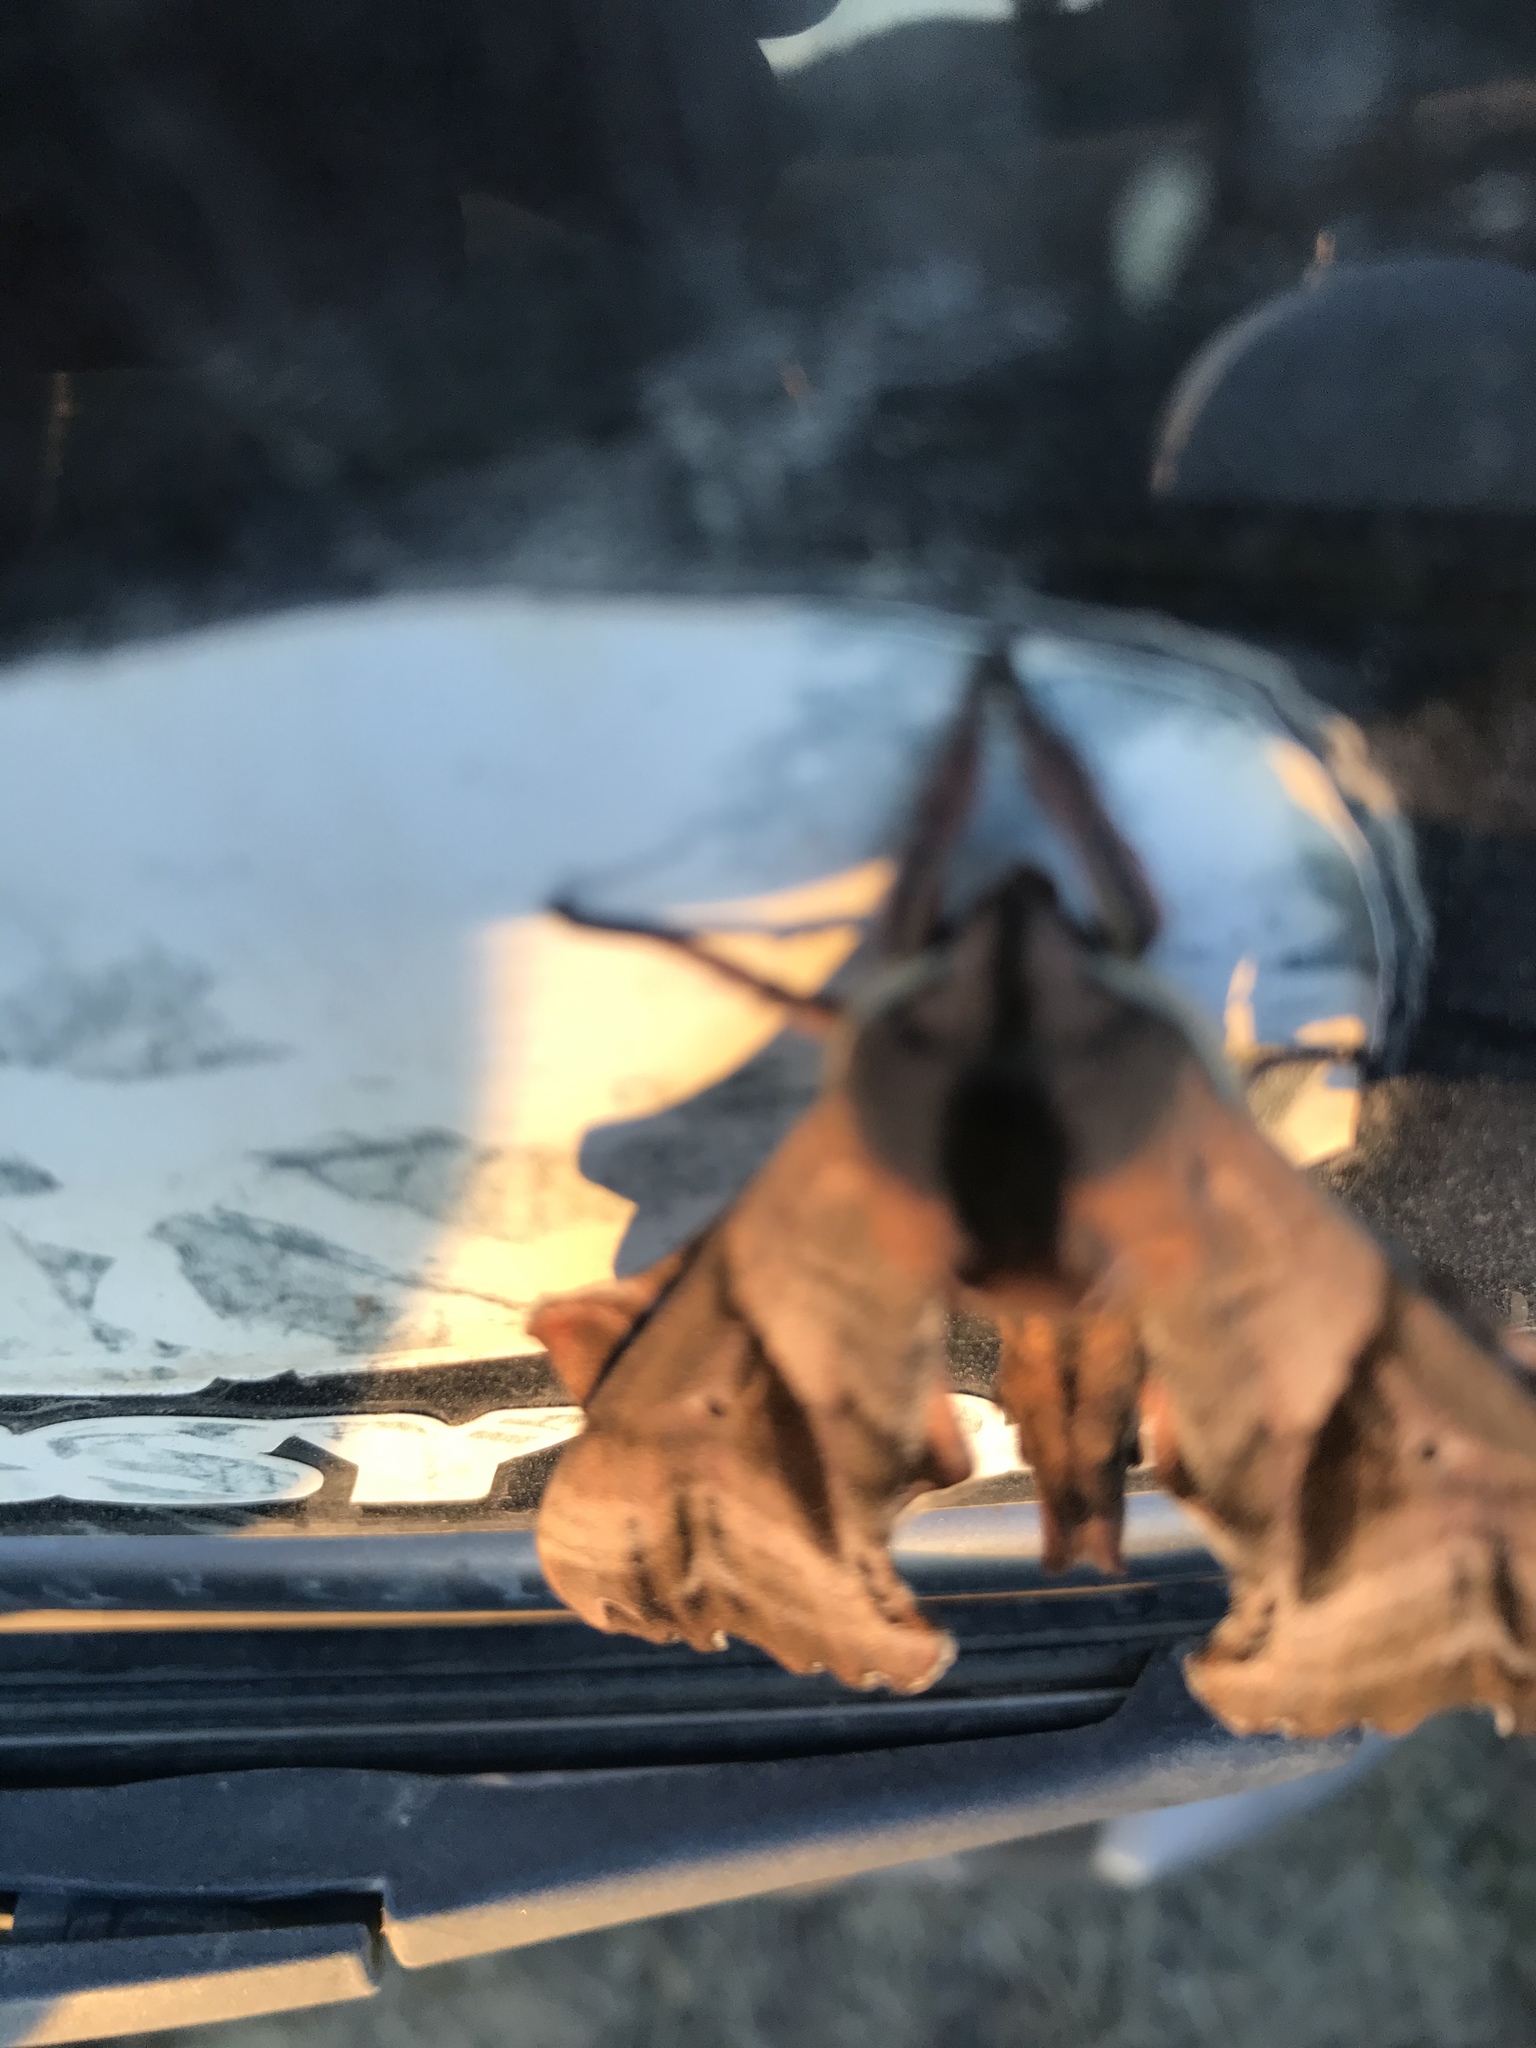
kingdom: Animalia
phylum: Arthropoda
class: Insecta
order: Lepidoptera
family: Sphingidae
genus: Paonias
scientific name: Paonias excaecata
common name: Blind-eyed sphinx
